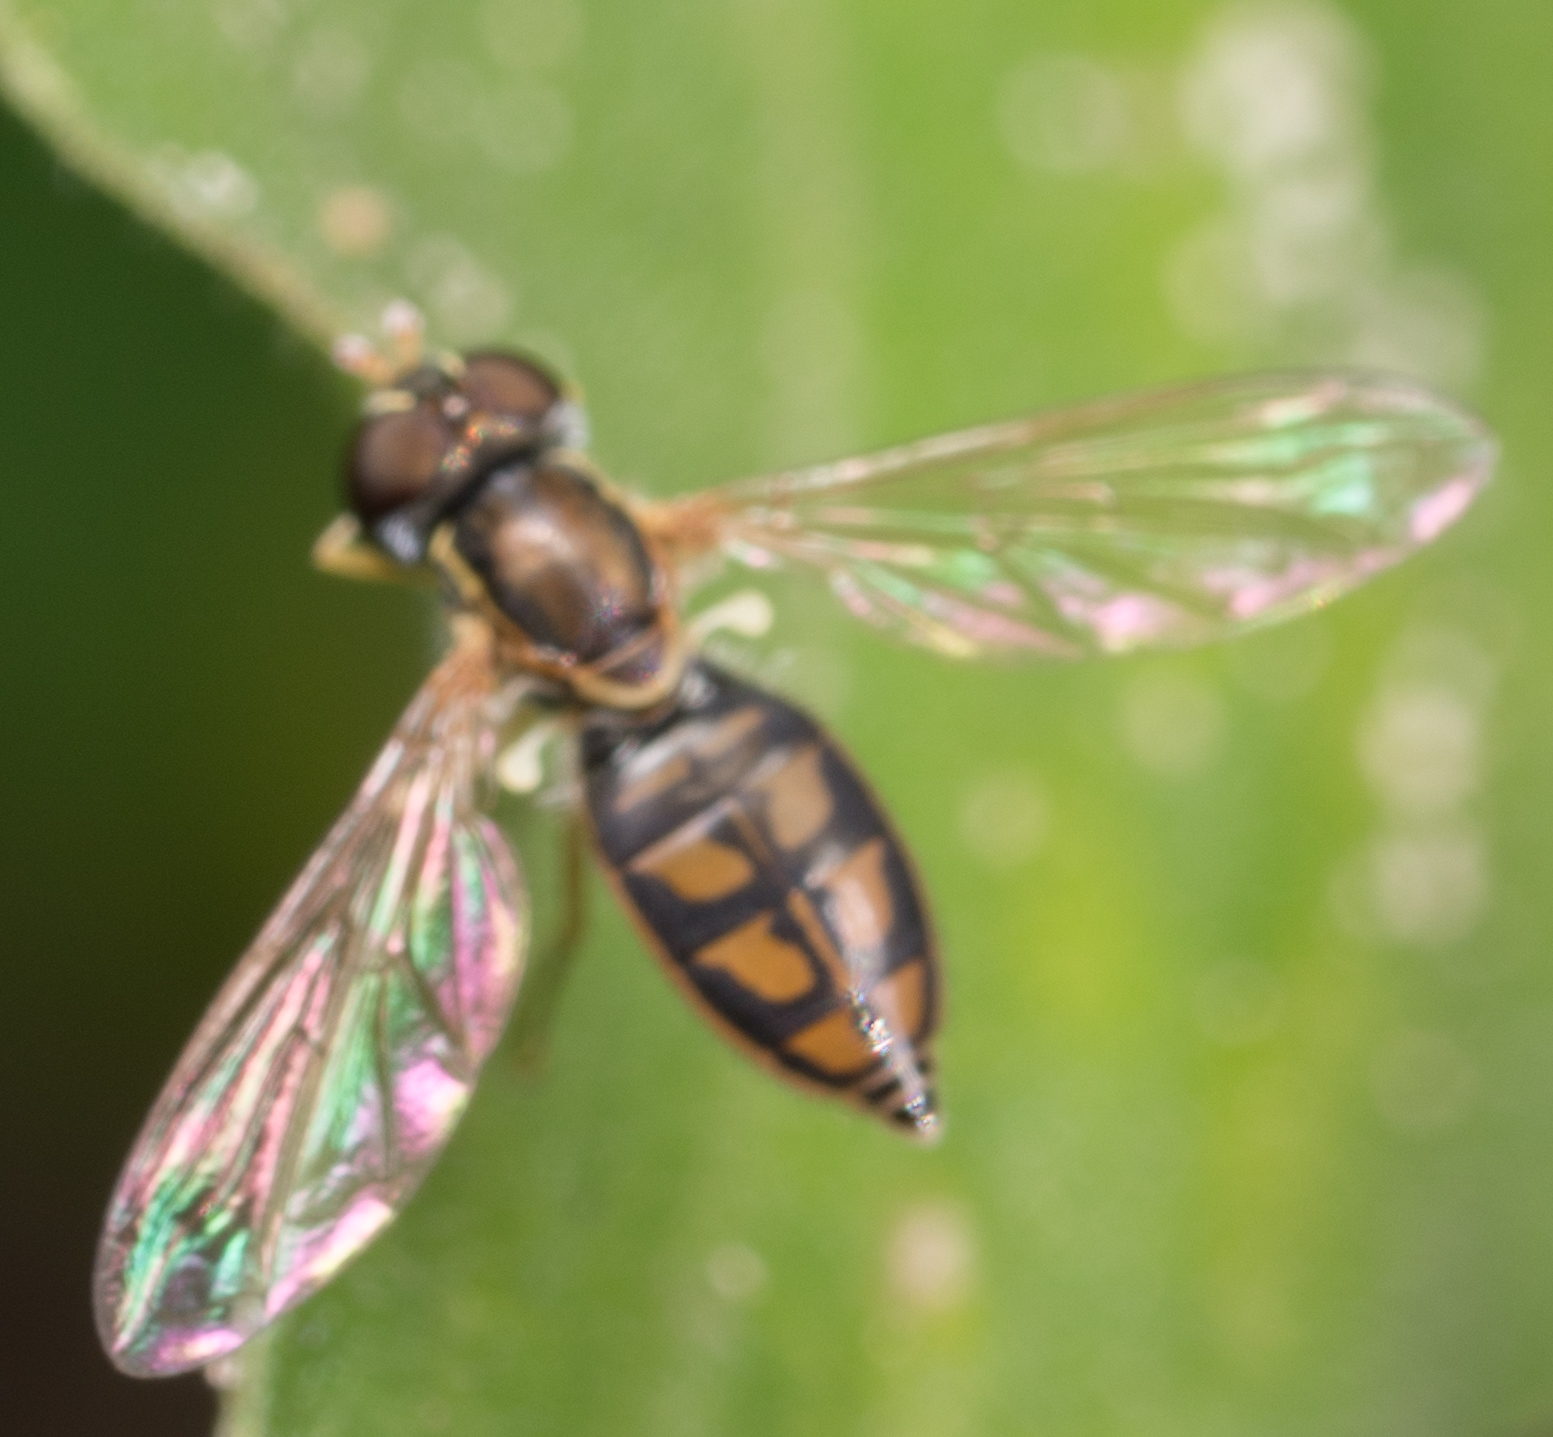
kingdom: Animalia
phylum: Arthropoda
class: Insecta
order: Diptera
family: Syrphidae
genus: Toxomerus
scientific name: Toxomerus marginatus
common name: Syrphid fly
